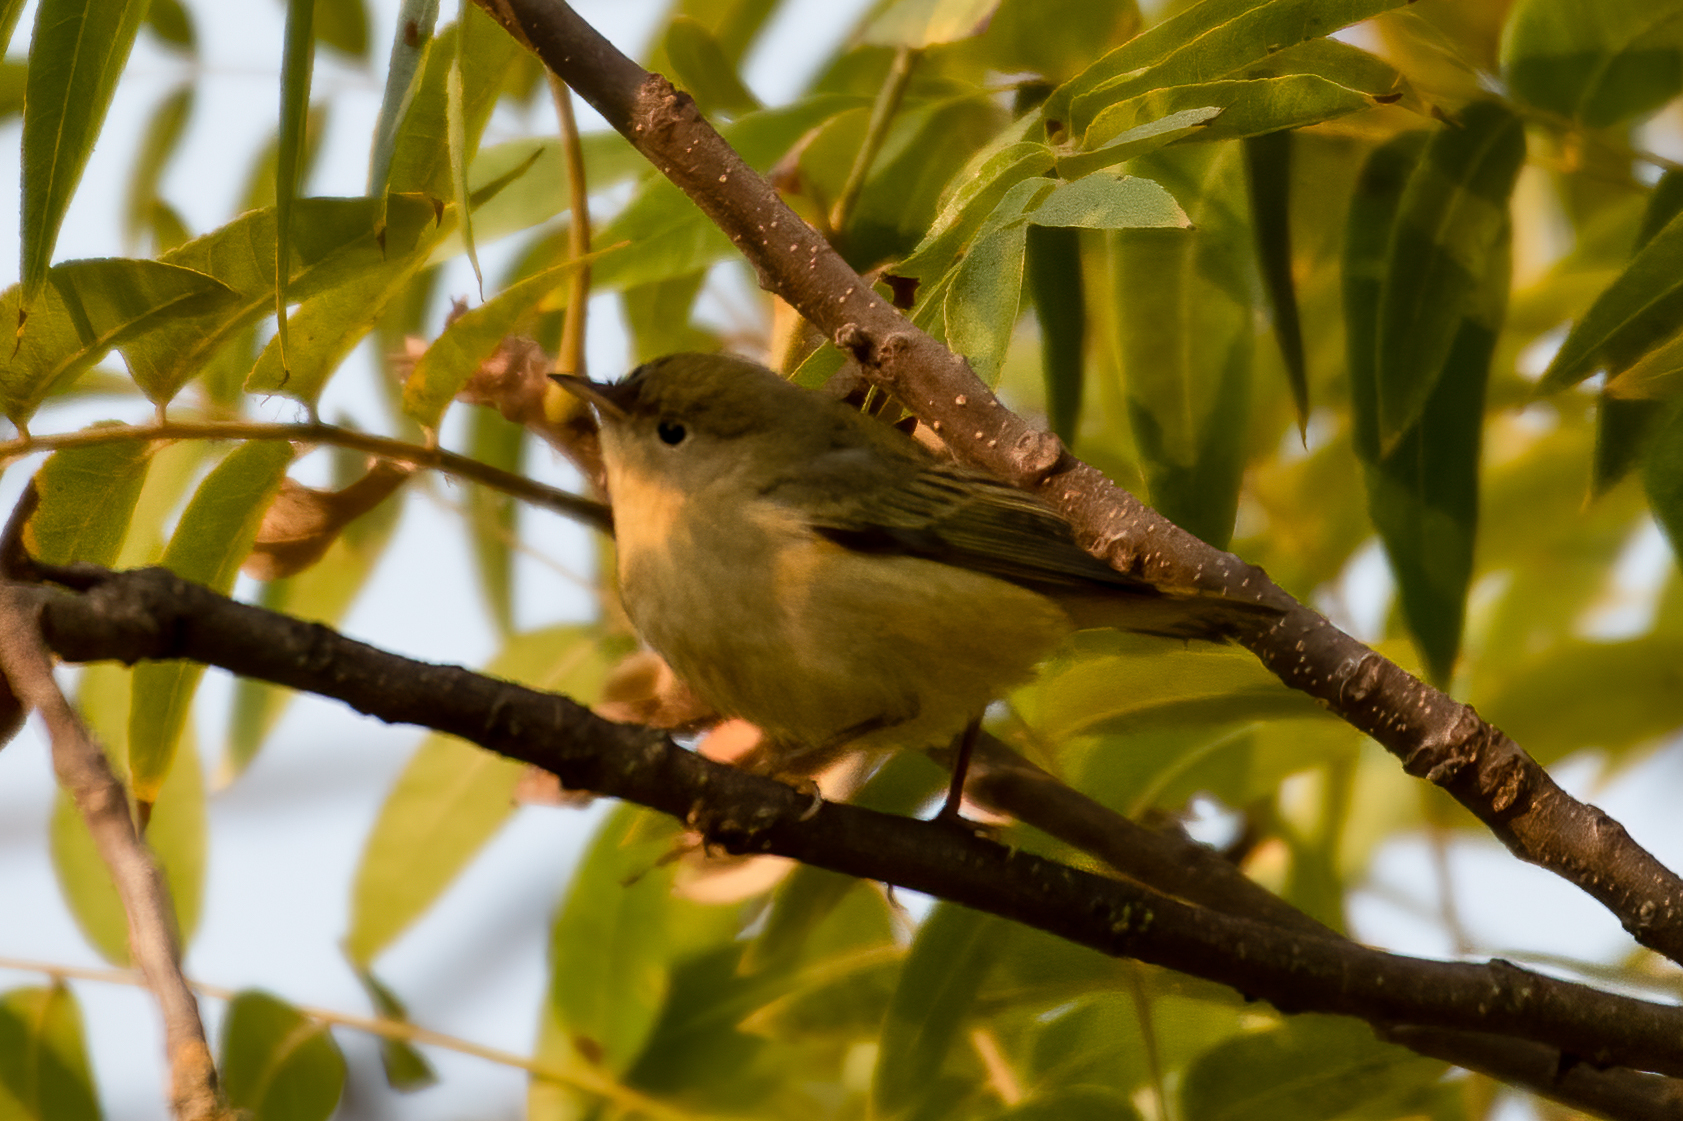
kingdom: Animalia
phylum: Chordata
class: Aves
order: Passeriformes
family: Parulidae
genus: Setophaga
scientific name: Setophaga petechia
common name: Yellow warbler
